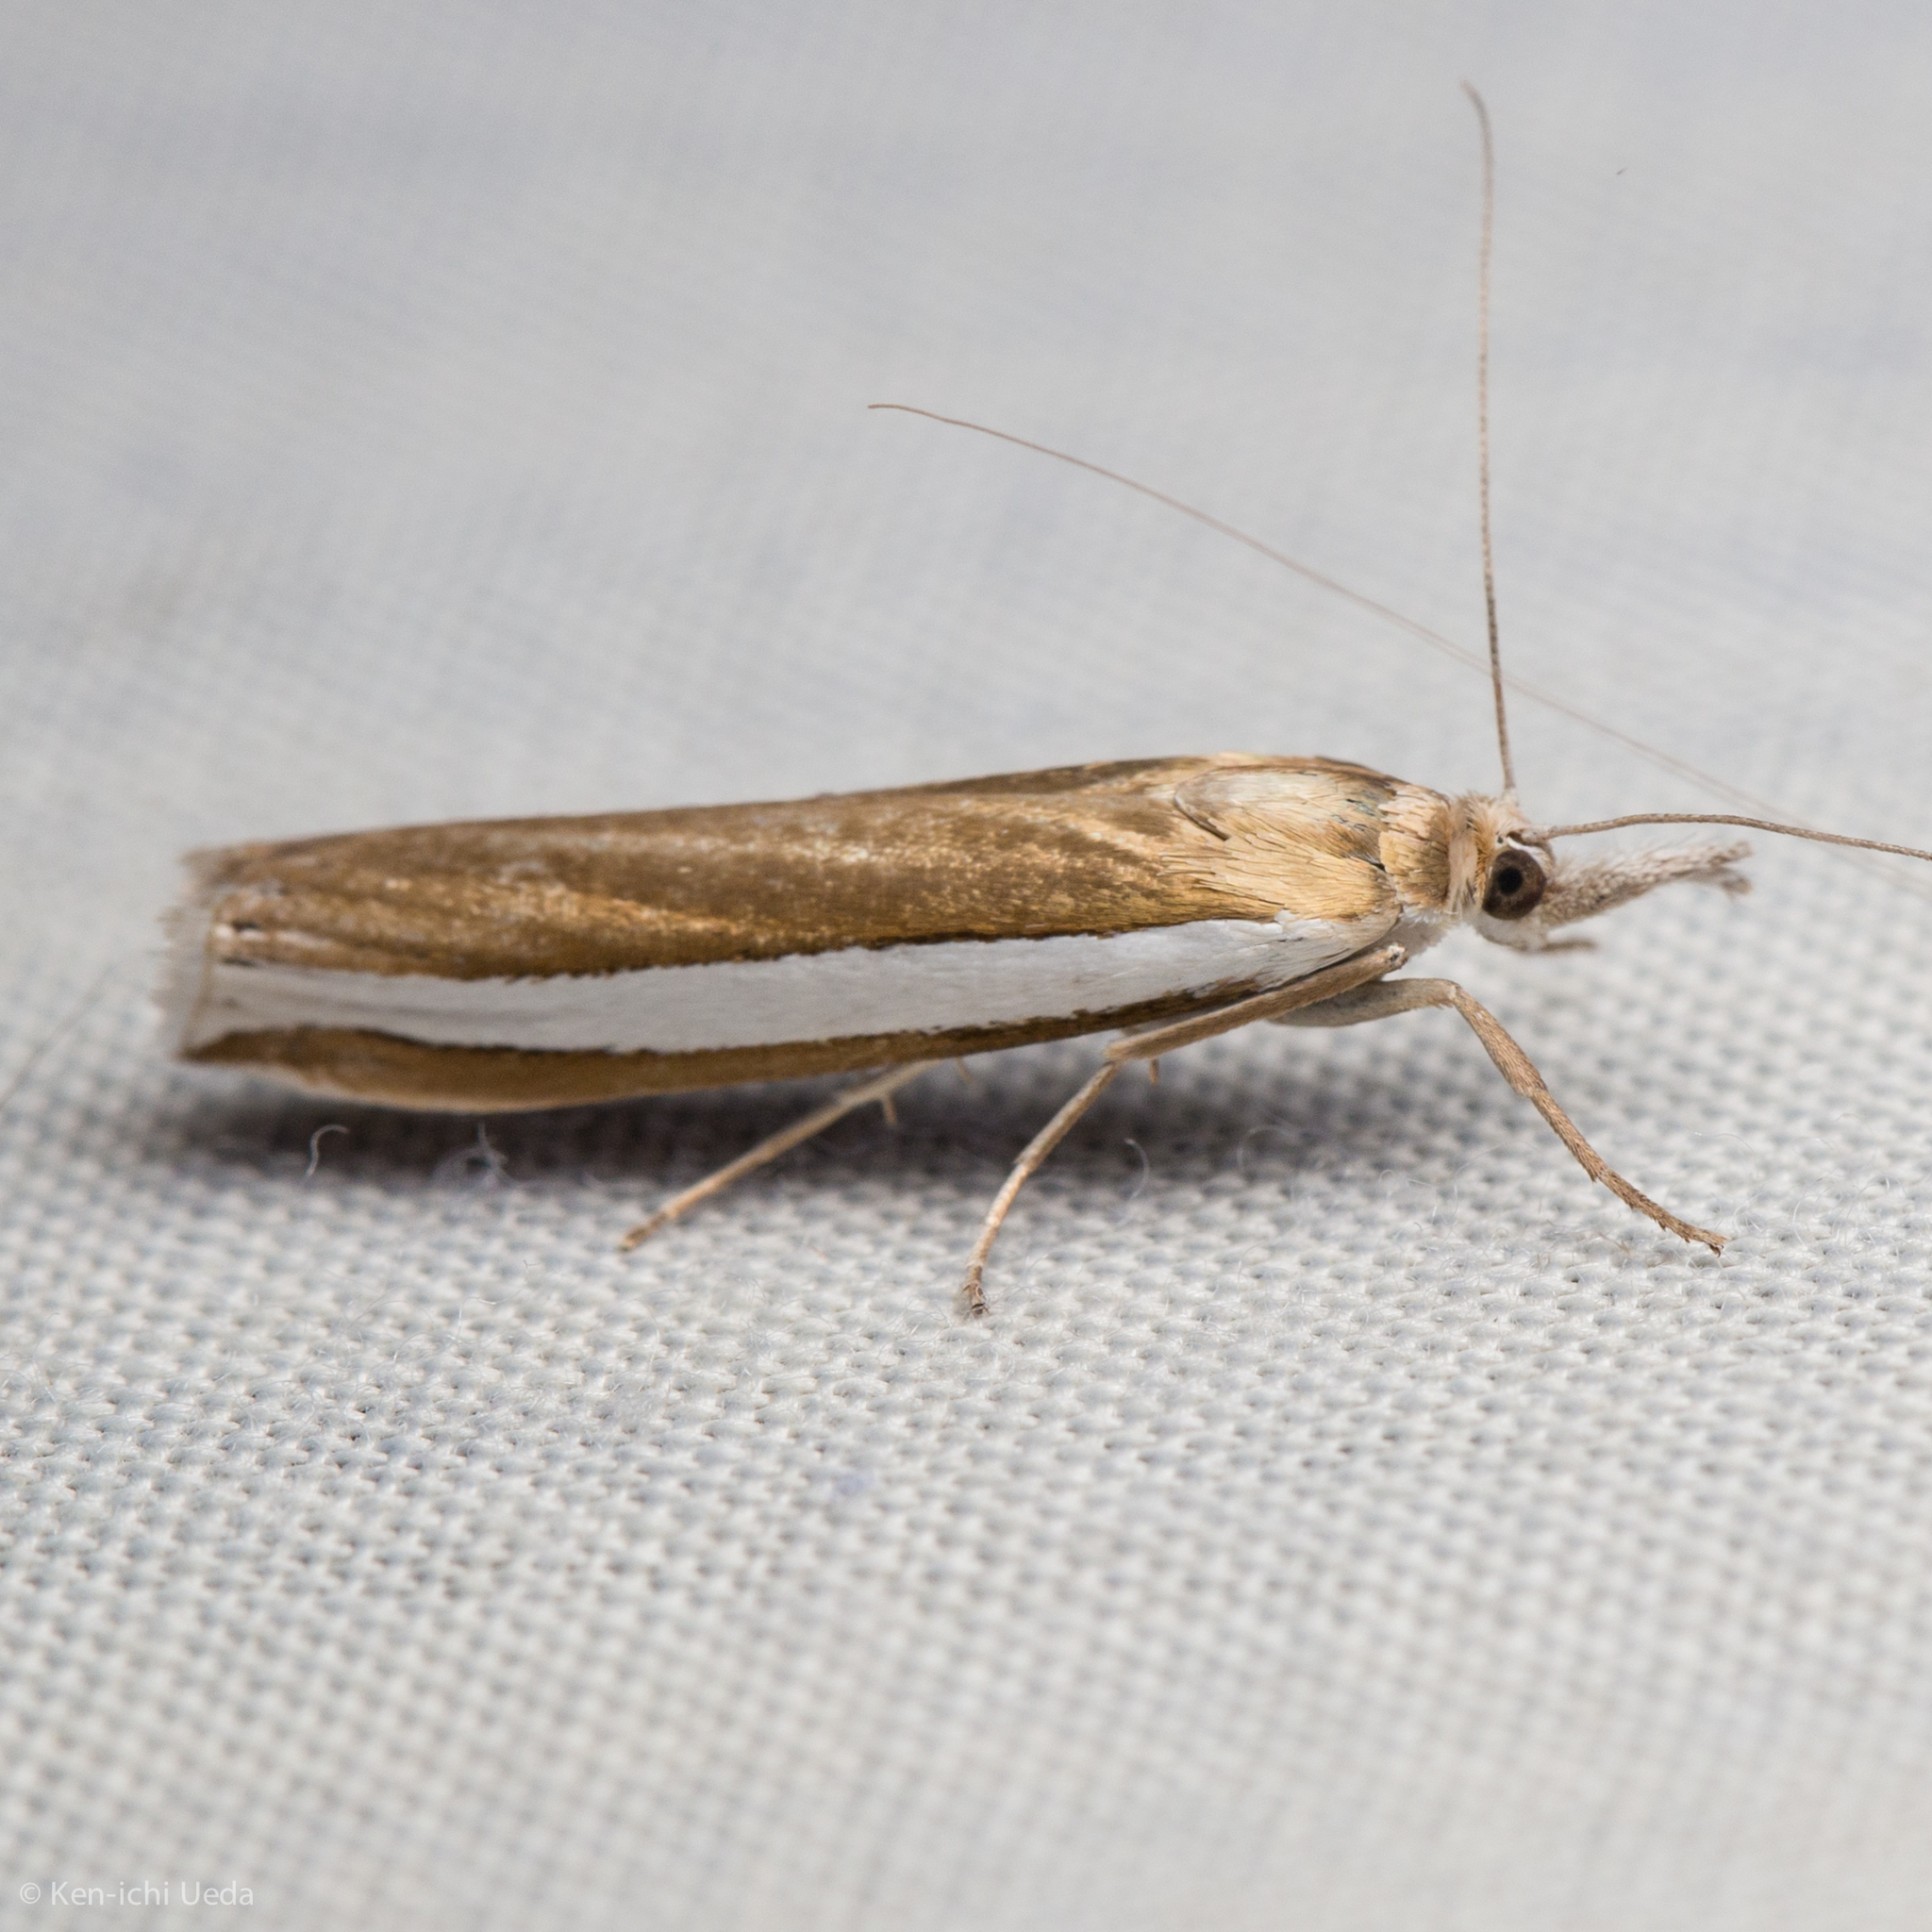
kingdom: Animalia
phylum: Arthropoda
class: Insecta
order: Lepidoptera
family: Crambidae
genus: Crambus
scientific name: Crambus unistriatellus
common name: Wide-stripe grass-veneer moth
